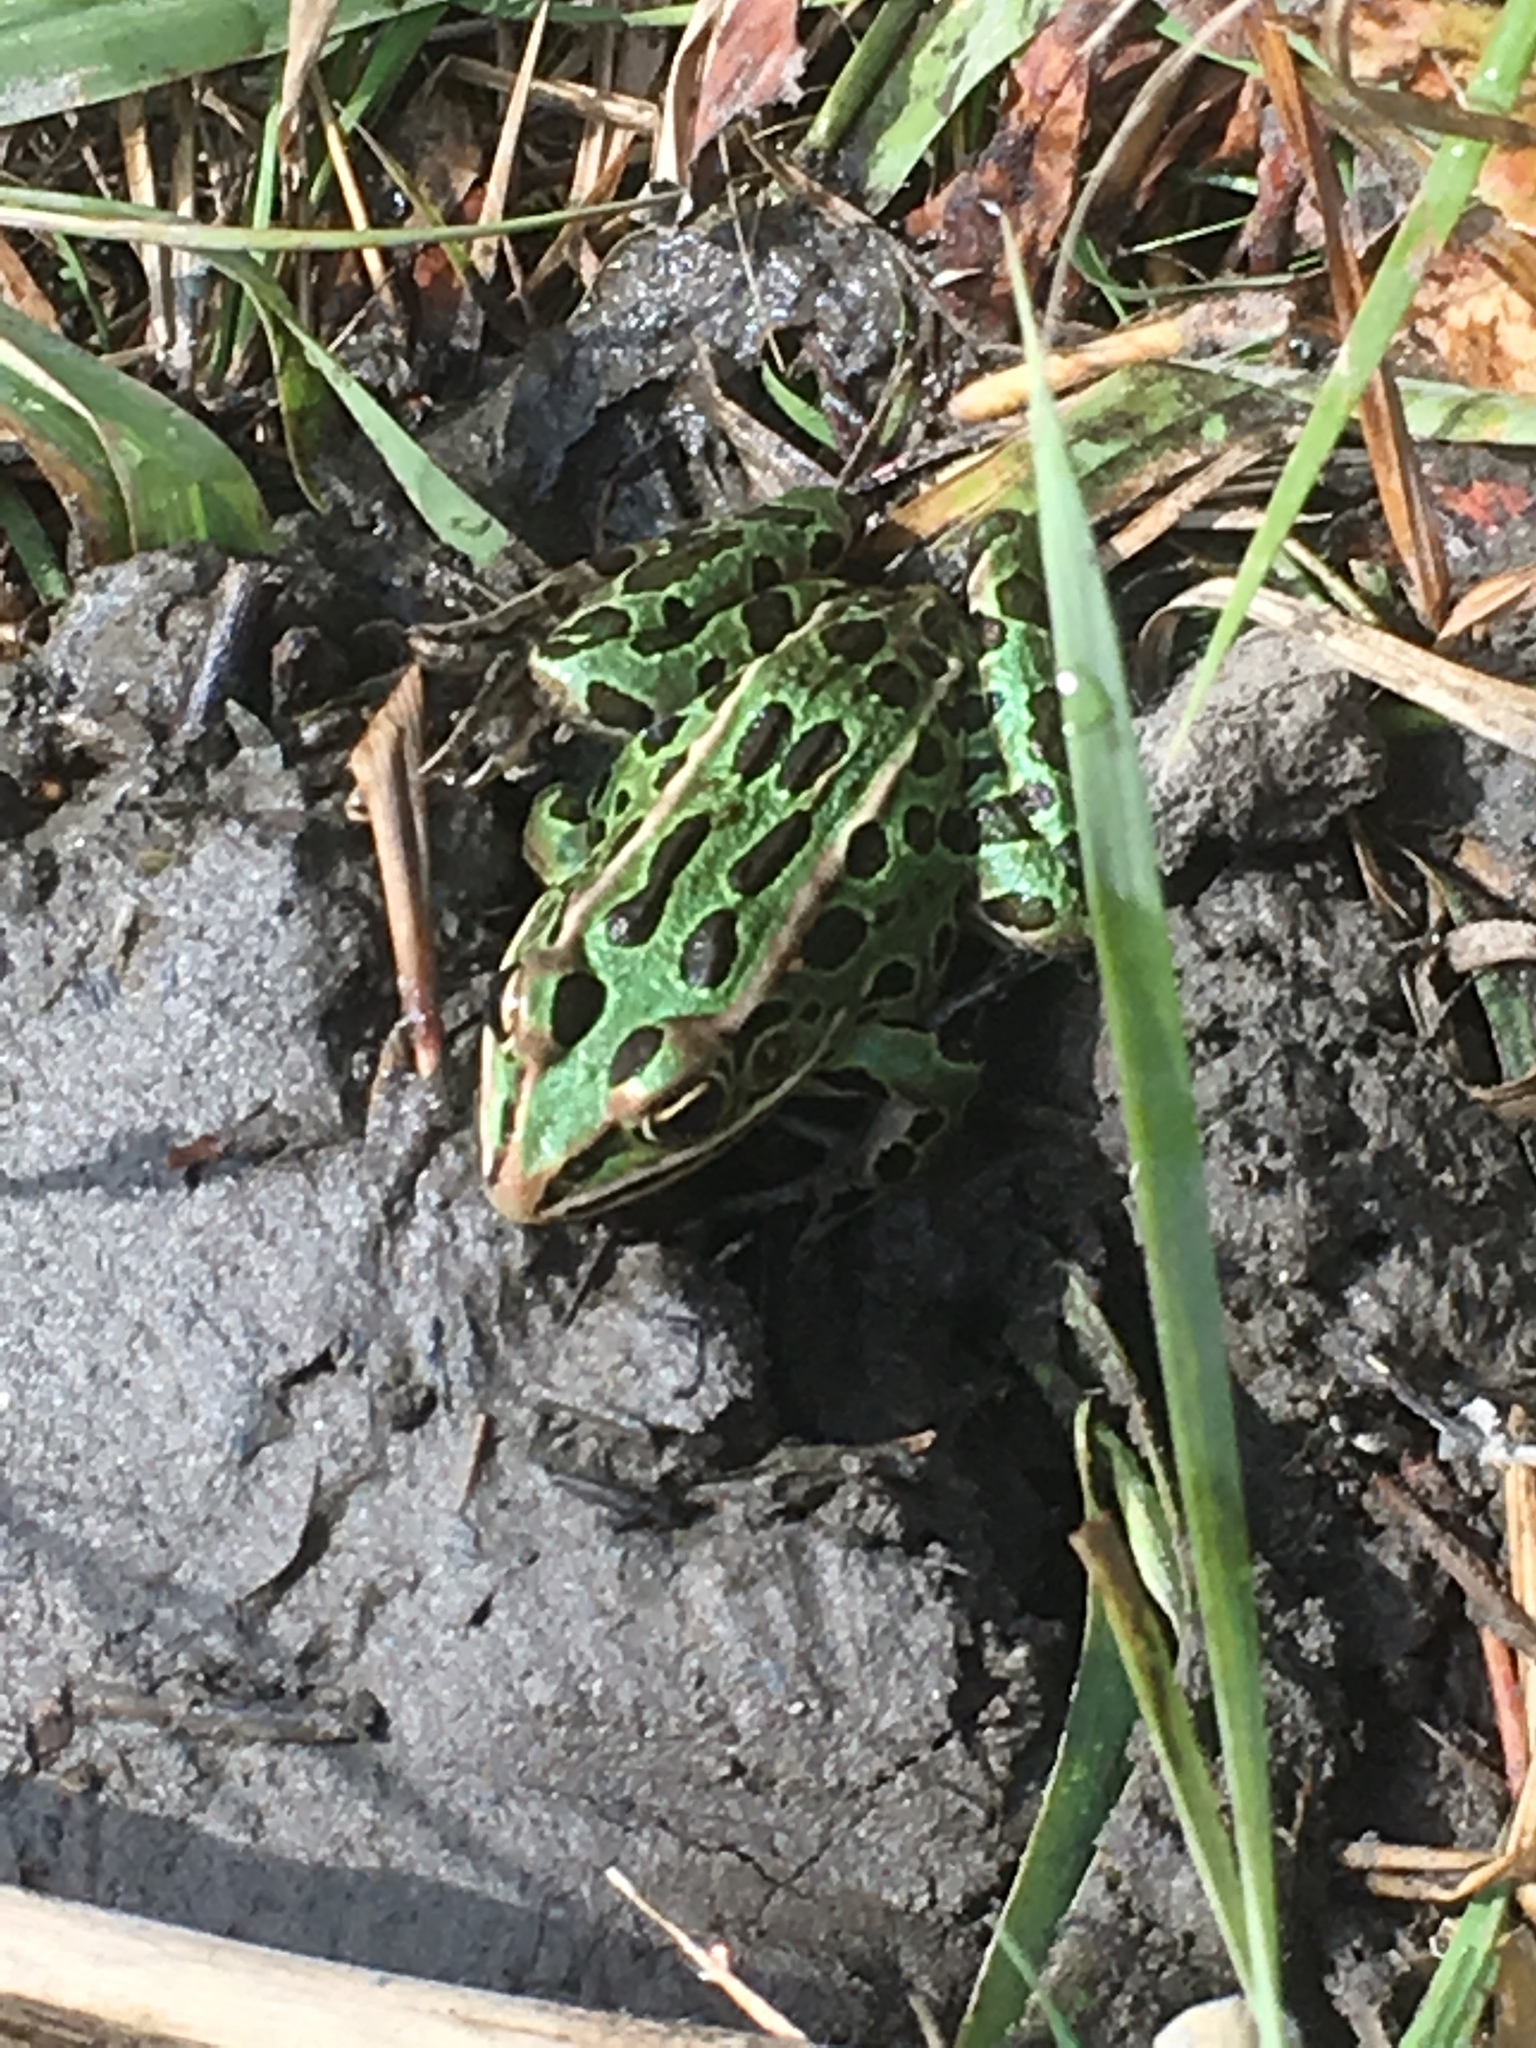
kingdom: Animalia
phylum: Chordata
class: Amphibia
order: Anura
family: Ranidae
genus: Lithobates
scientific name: Lithobates pipiens
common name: Northern leopard frog
